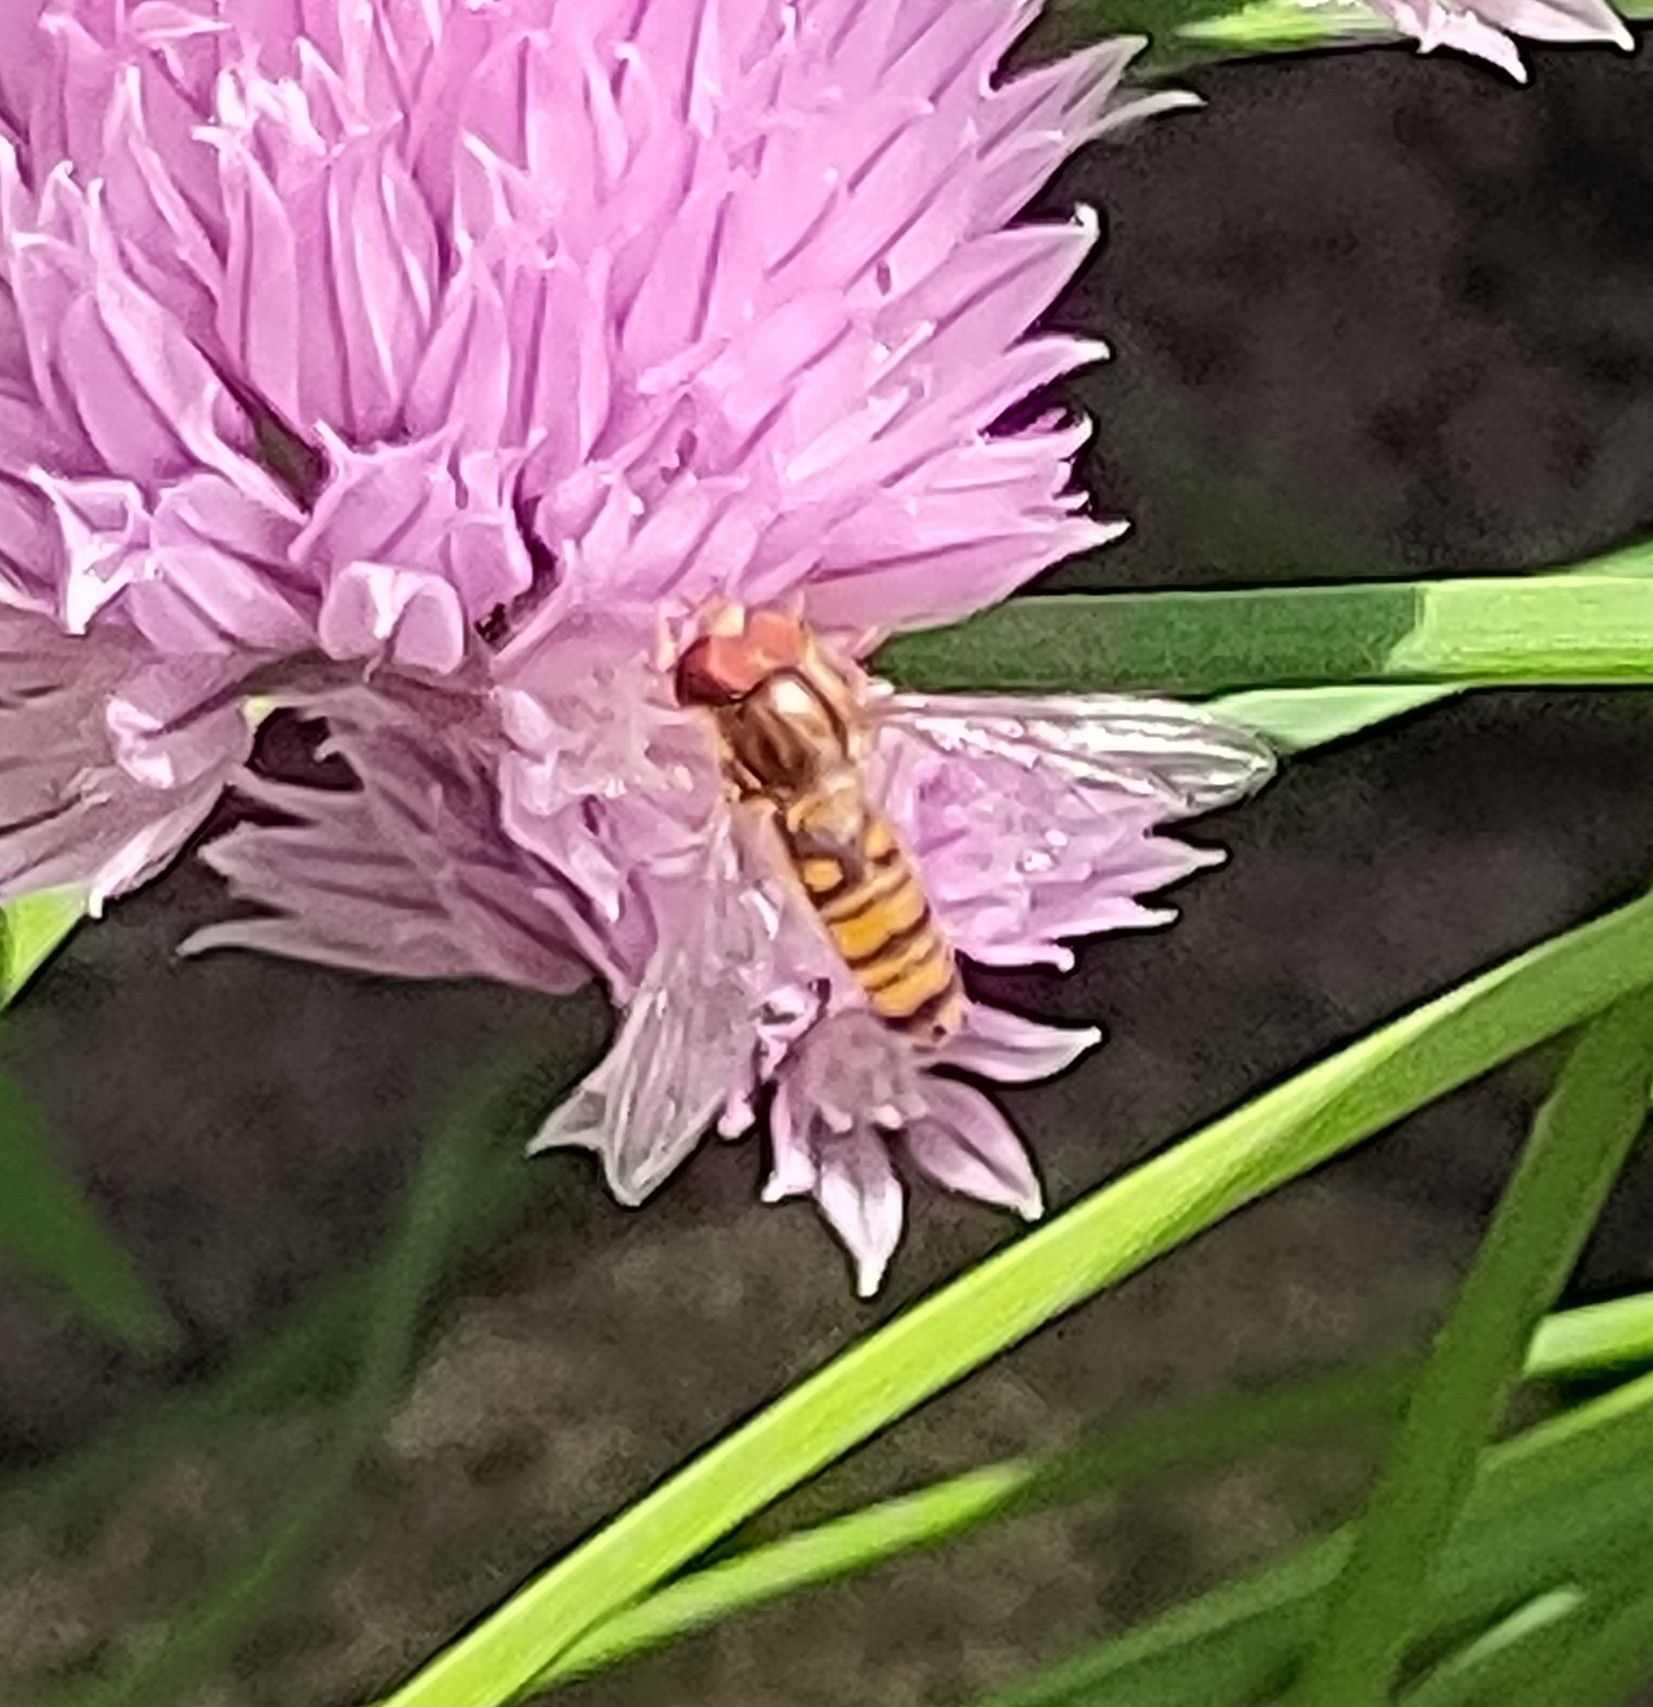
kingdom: Animalia
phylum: Arthropoda
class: Insecta
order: Diptera
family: Syrphidae
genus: Episyrphus
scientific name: Episyrphus balteatus
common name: Marmalade hoverfly
